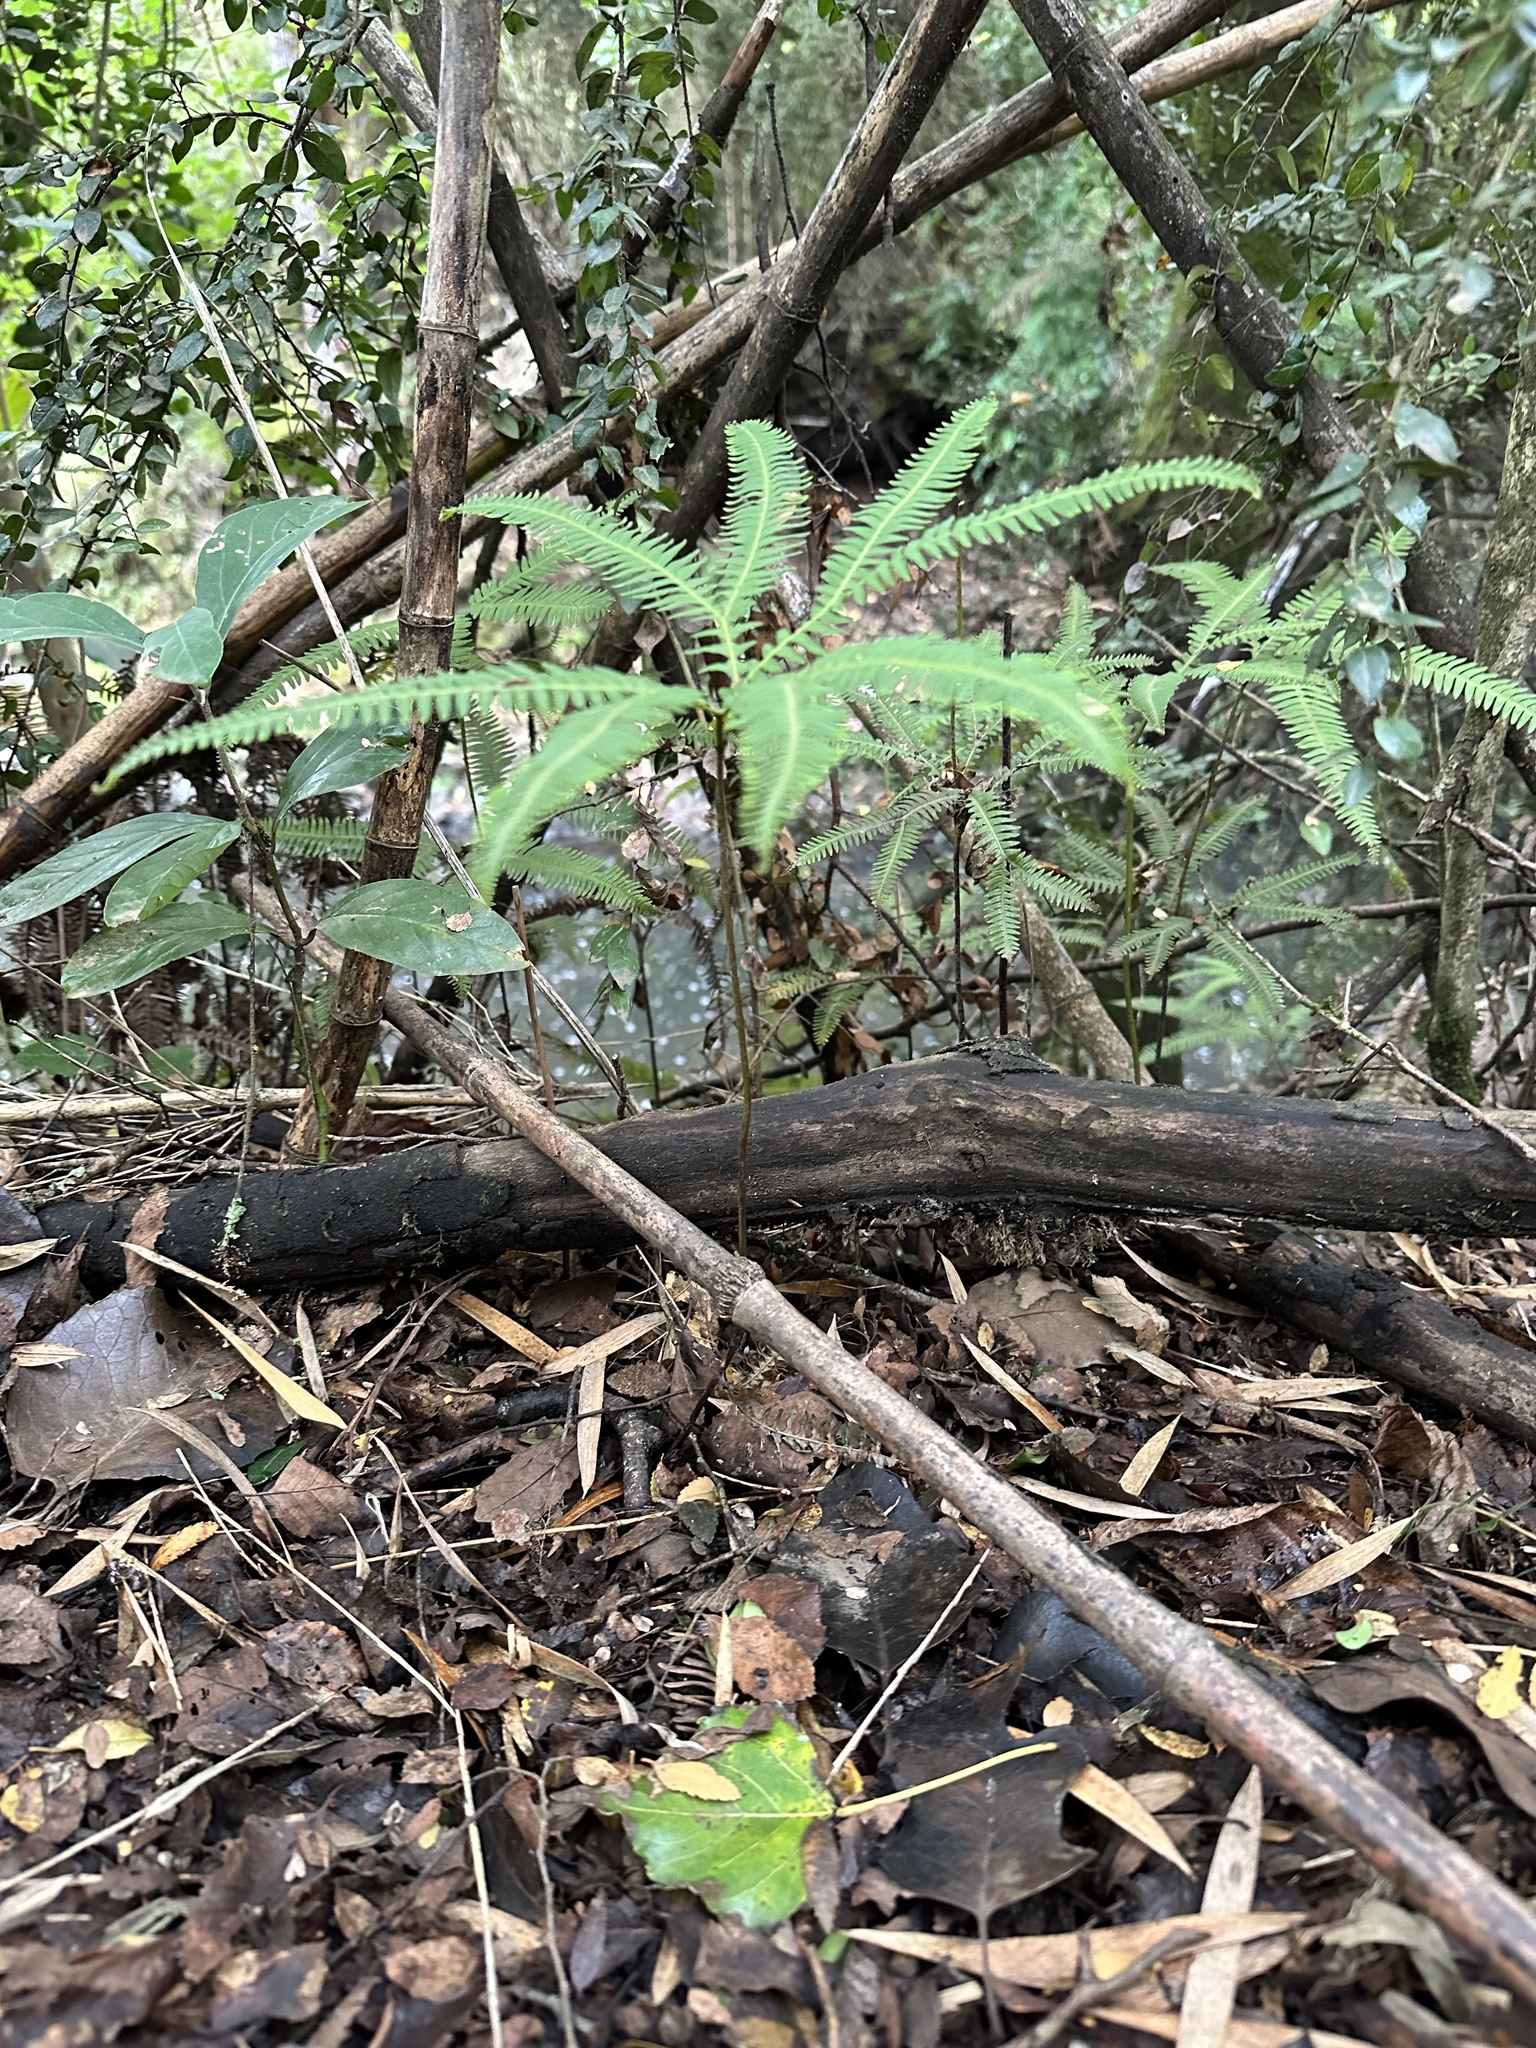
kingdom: Plantae
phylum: Tracheophyta
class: Polypodiopsida
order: Gleicheniales
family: Gleicheniaceae
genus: Sticherus
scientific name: Sticherus quadripartitus
